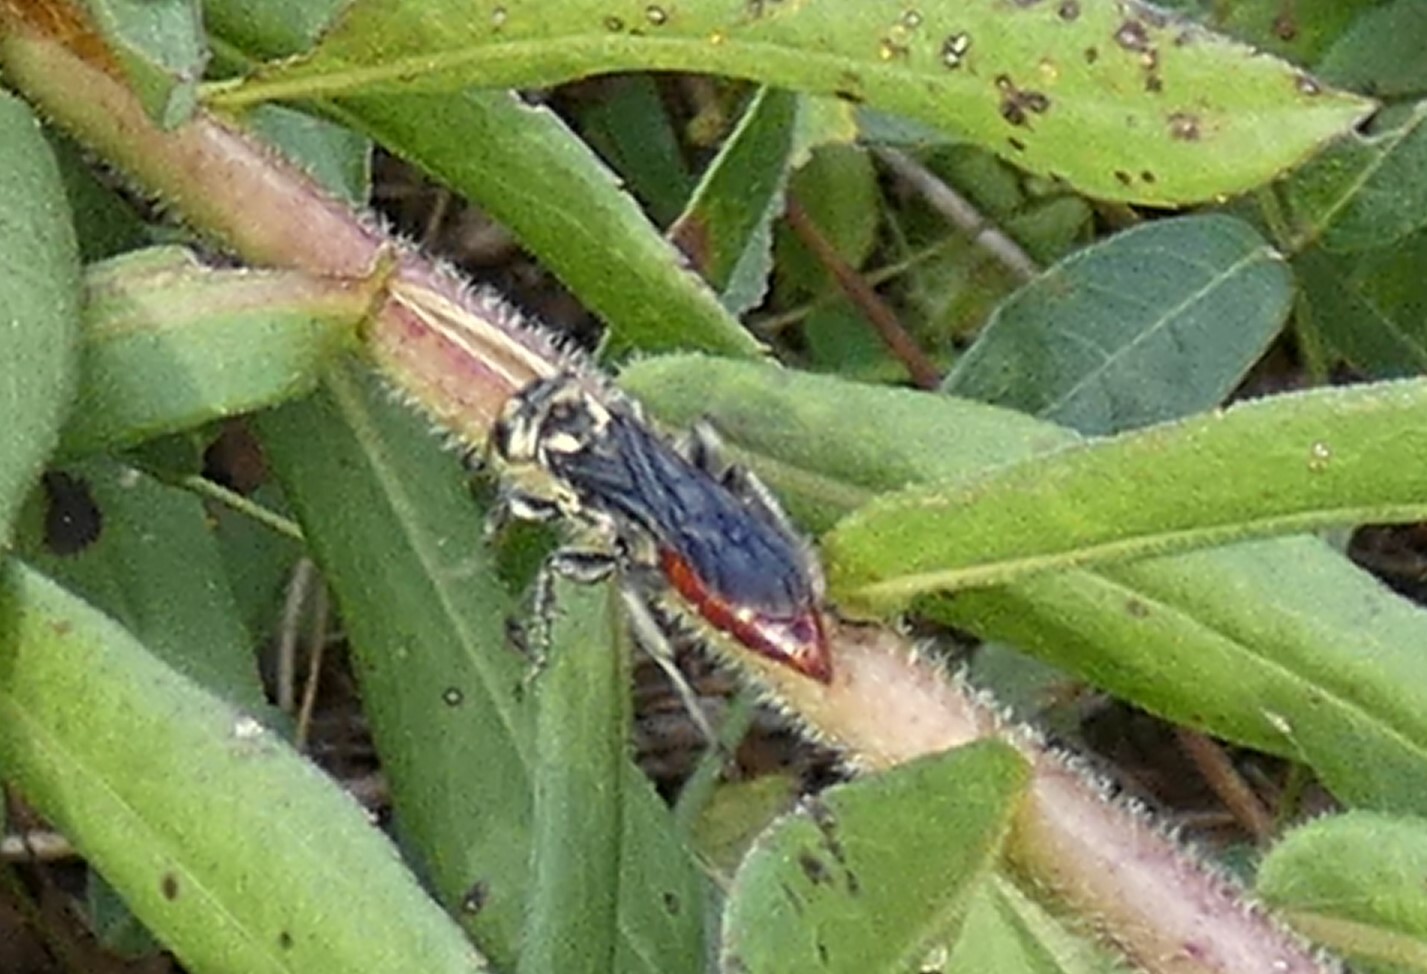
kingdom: Animalia
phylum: Arthropoda
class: Insecta
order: Hymenoptera
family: Crabronidae
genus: Larra
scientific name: Larra bicolor
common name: Wasp
